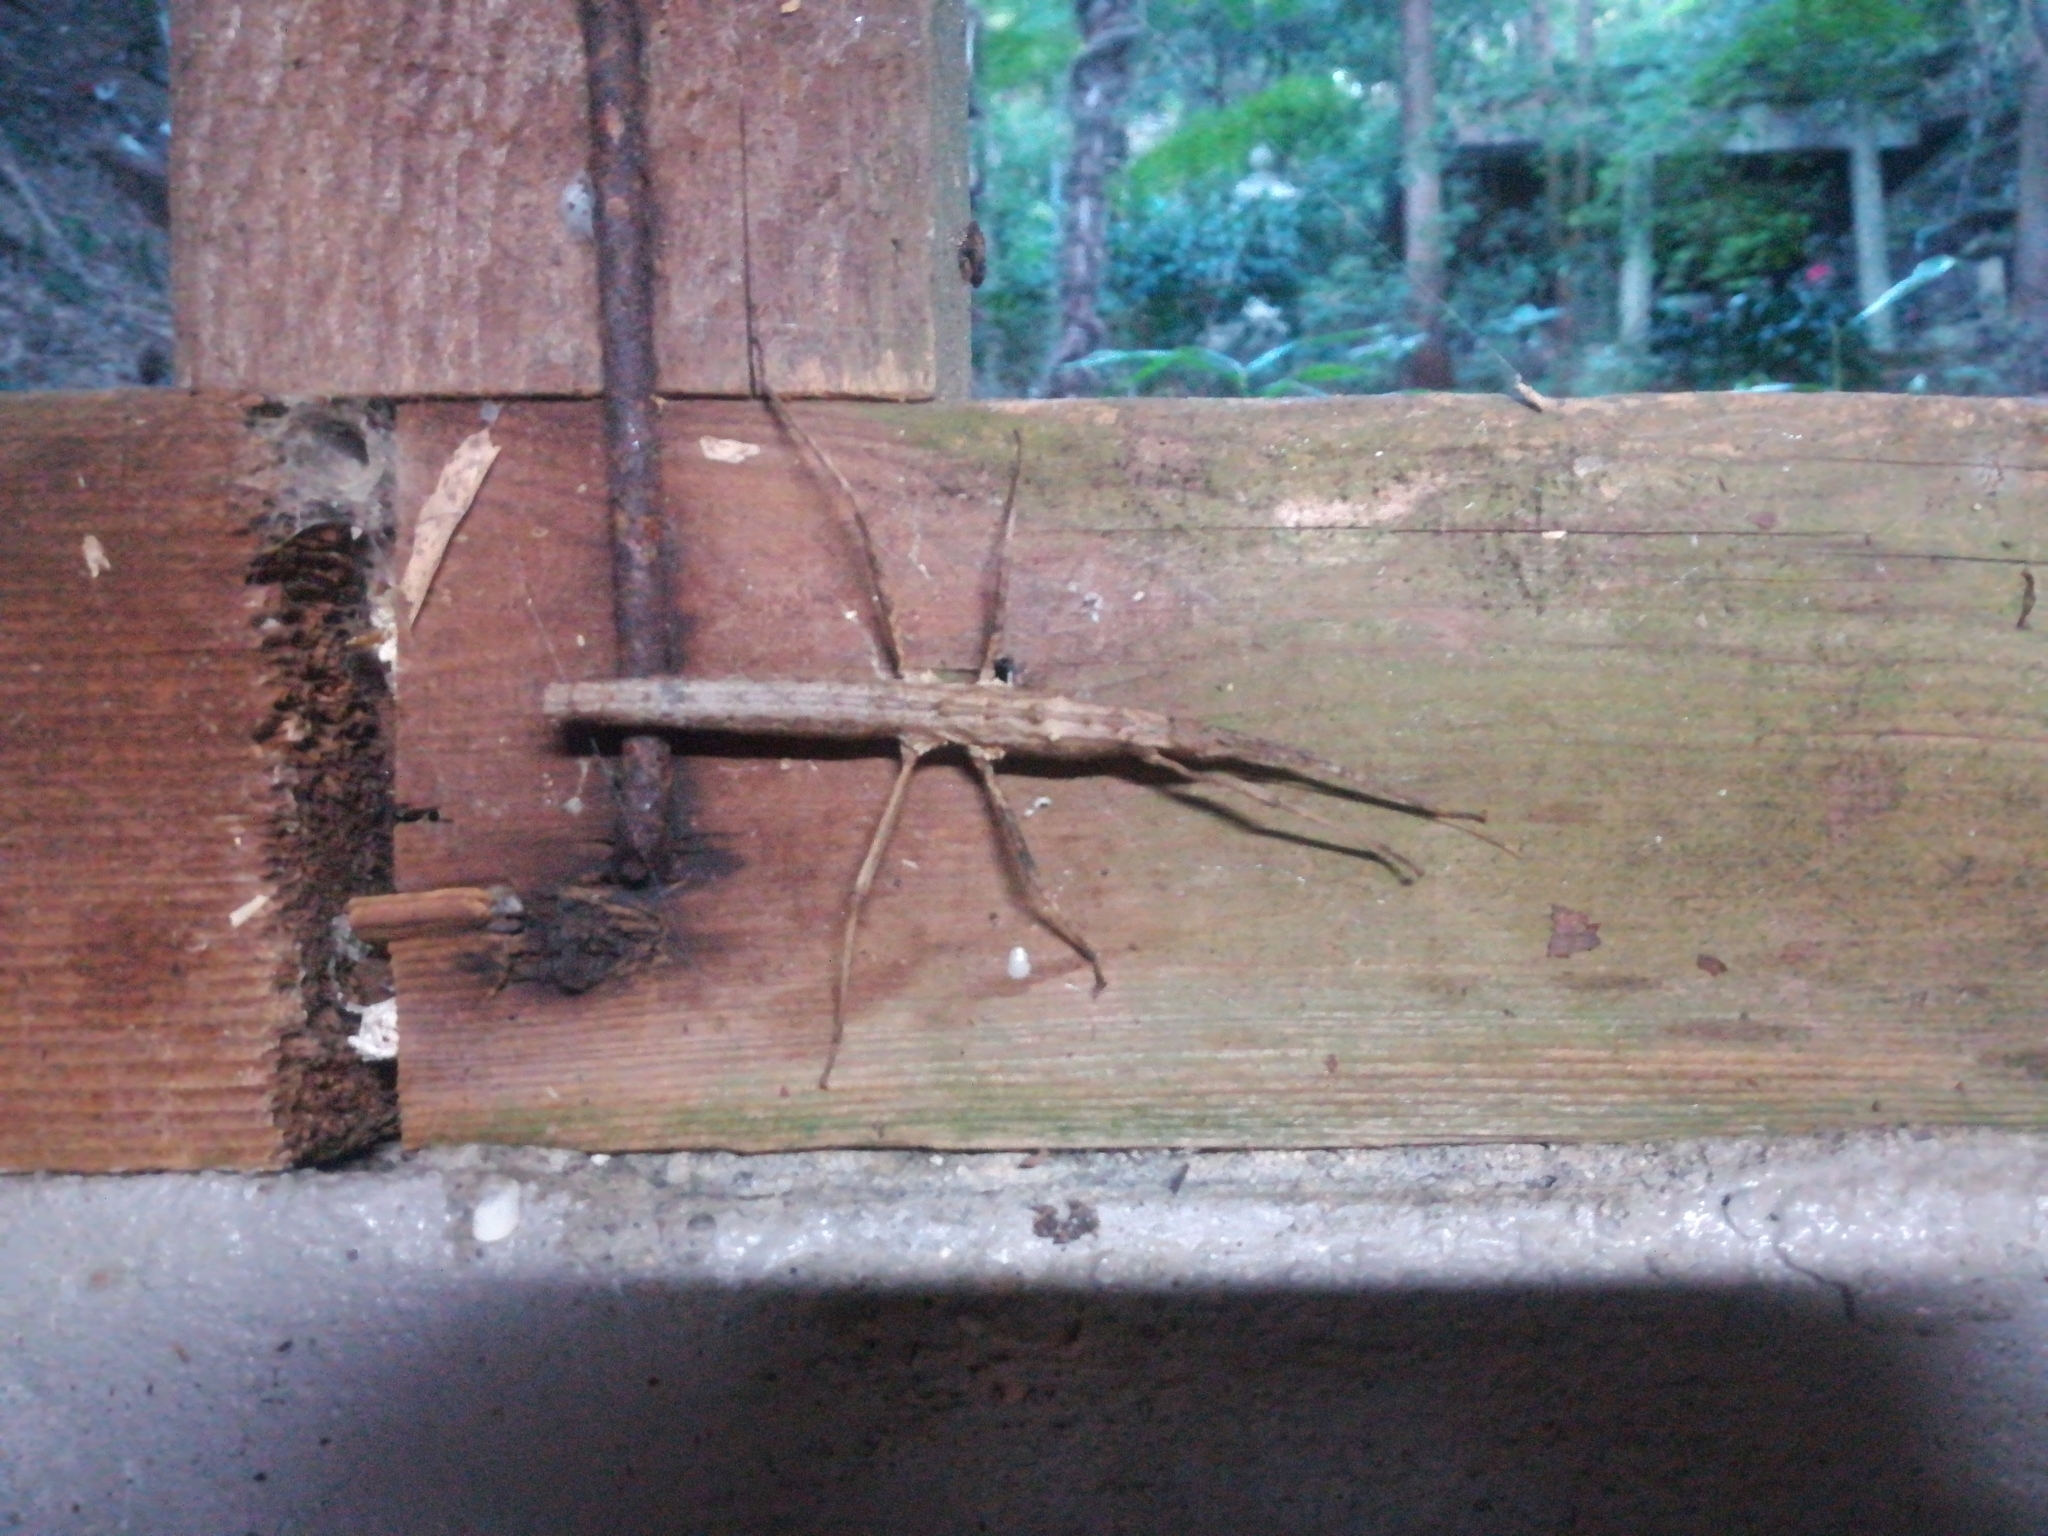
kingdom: Animalia
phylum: Arthropoda
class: Insecta
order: Phasmida
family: Lonchodidae
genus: Neohirasea
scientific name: Neohirasea japonica
